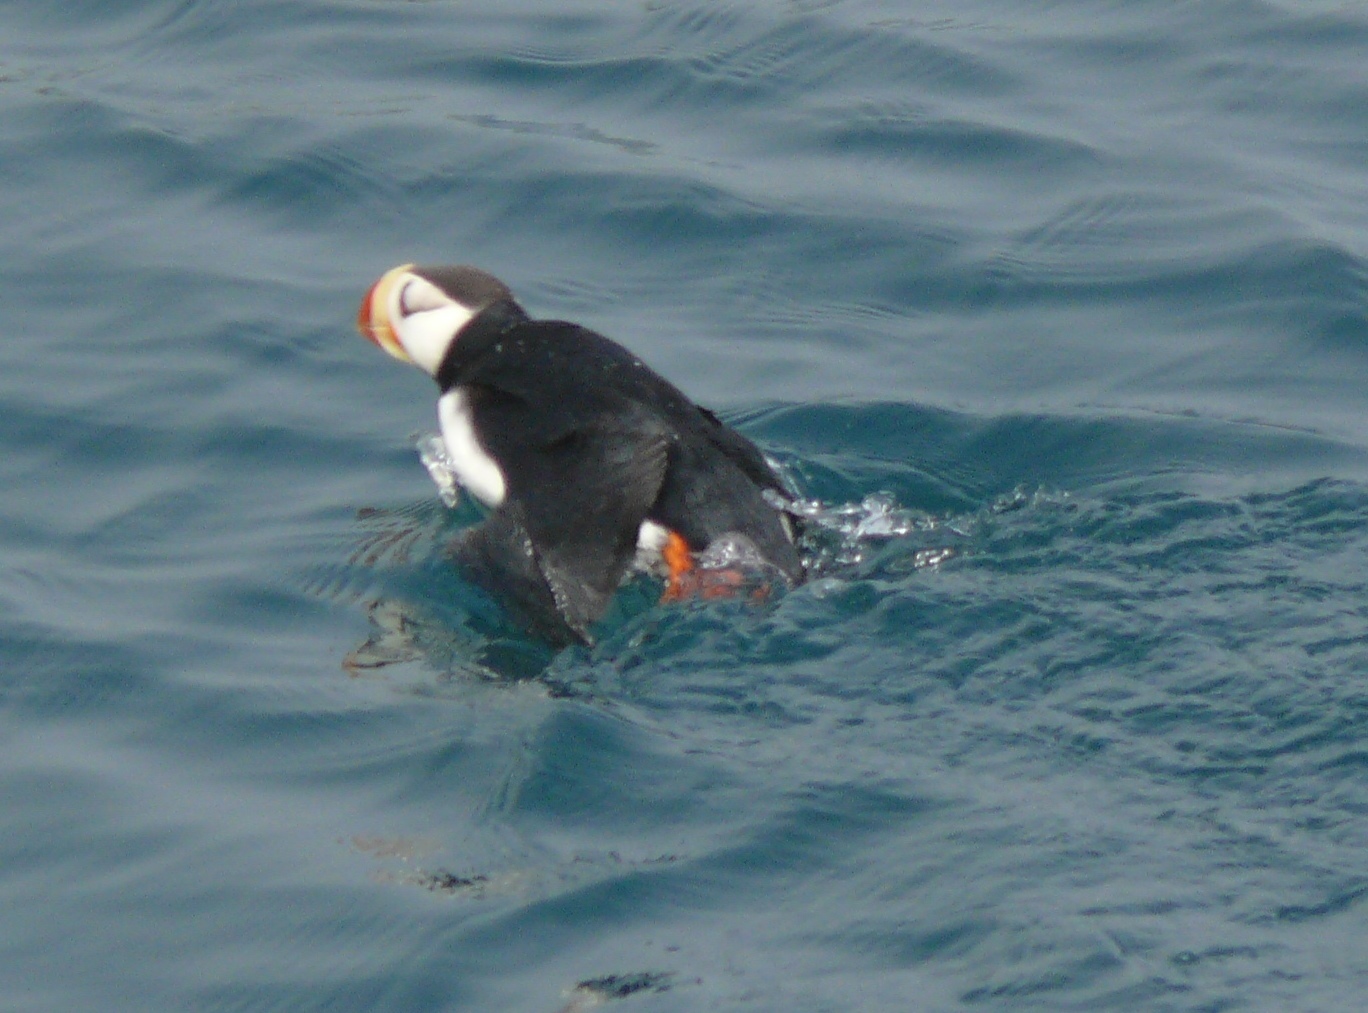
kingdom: Animalia
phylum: Chordata
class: Aves
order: Charadriiformes
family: Alcidae
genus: Fratercula
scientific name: Fratercula corniculata
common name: Horned puffin
